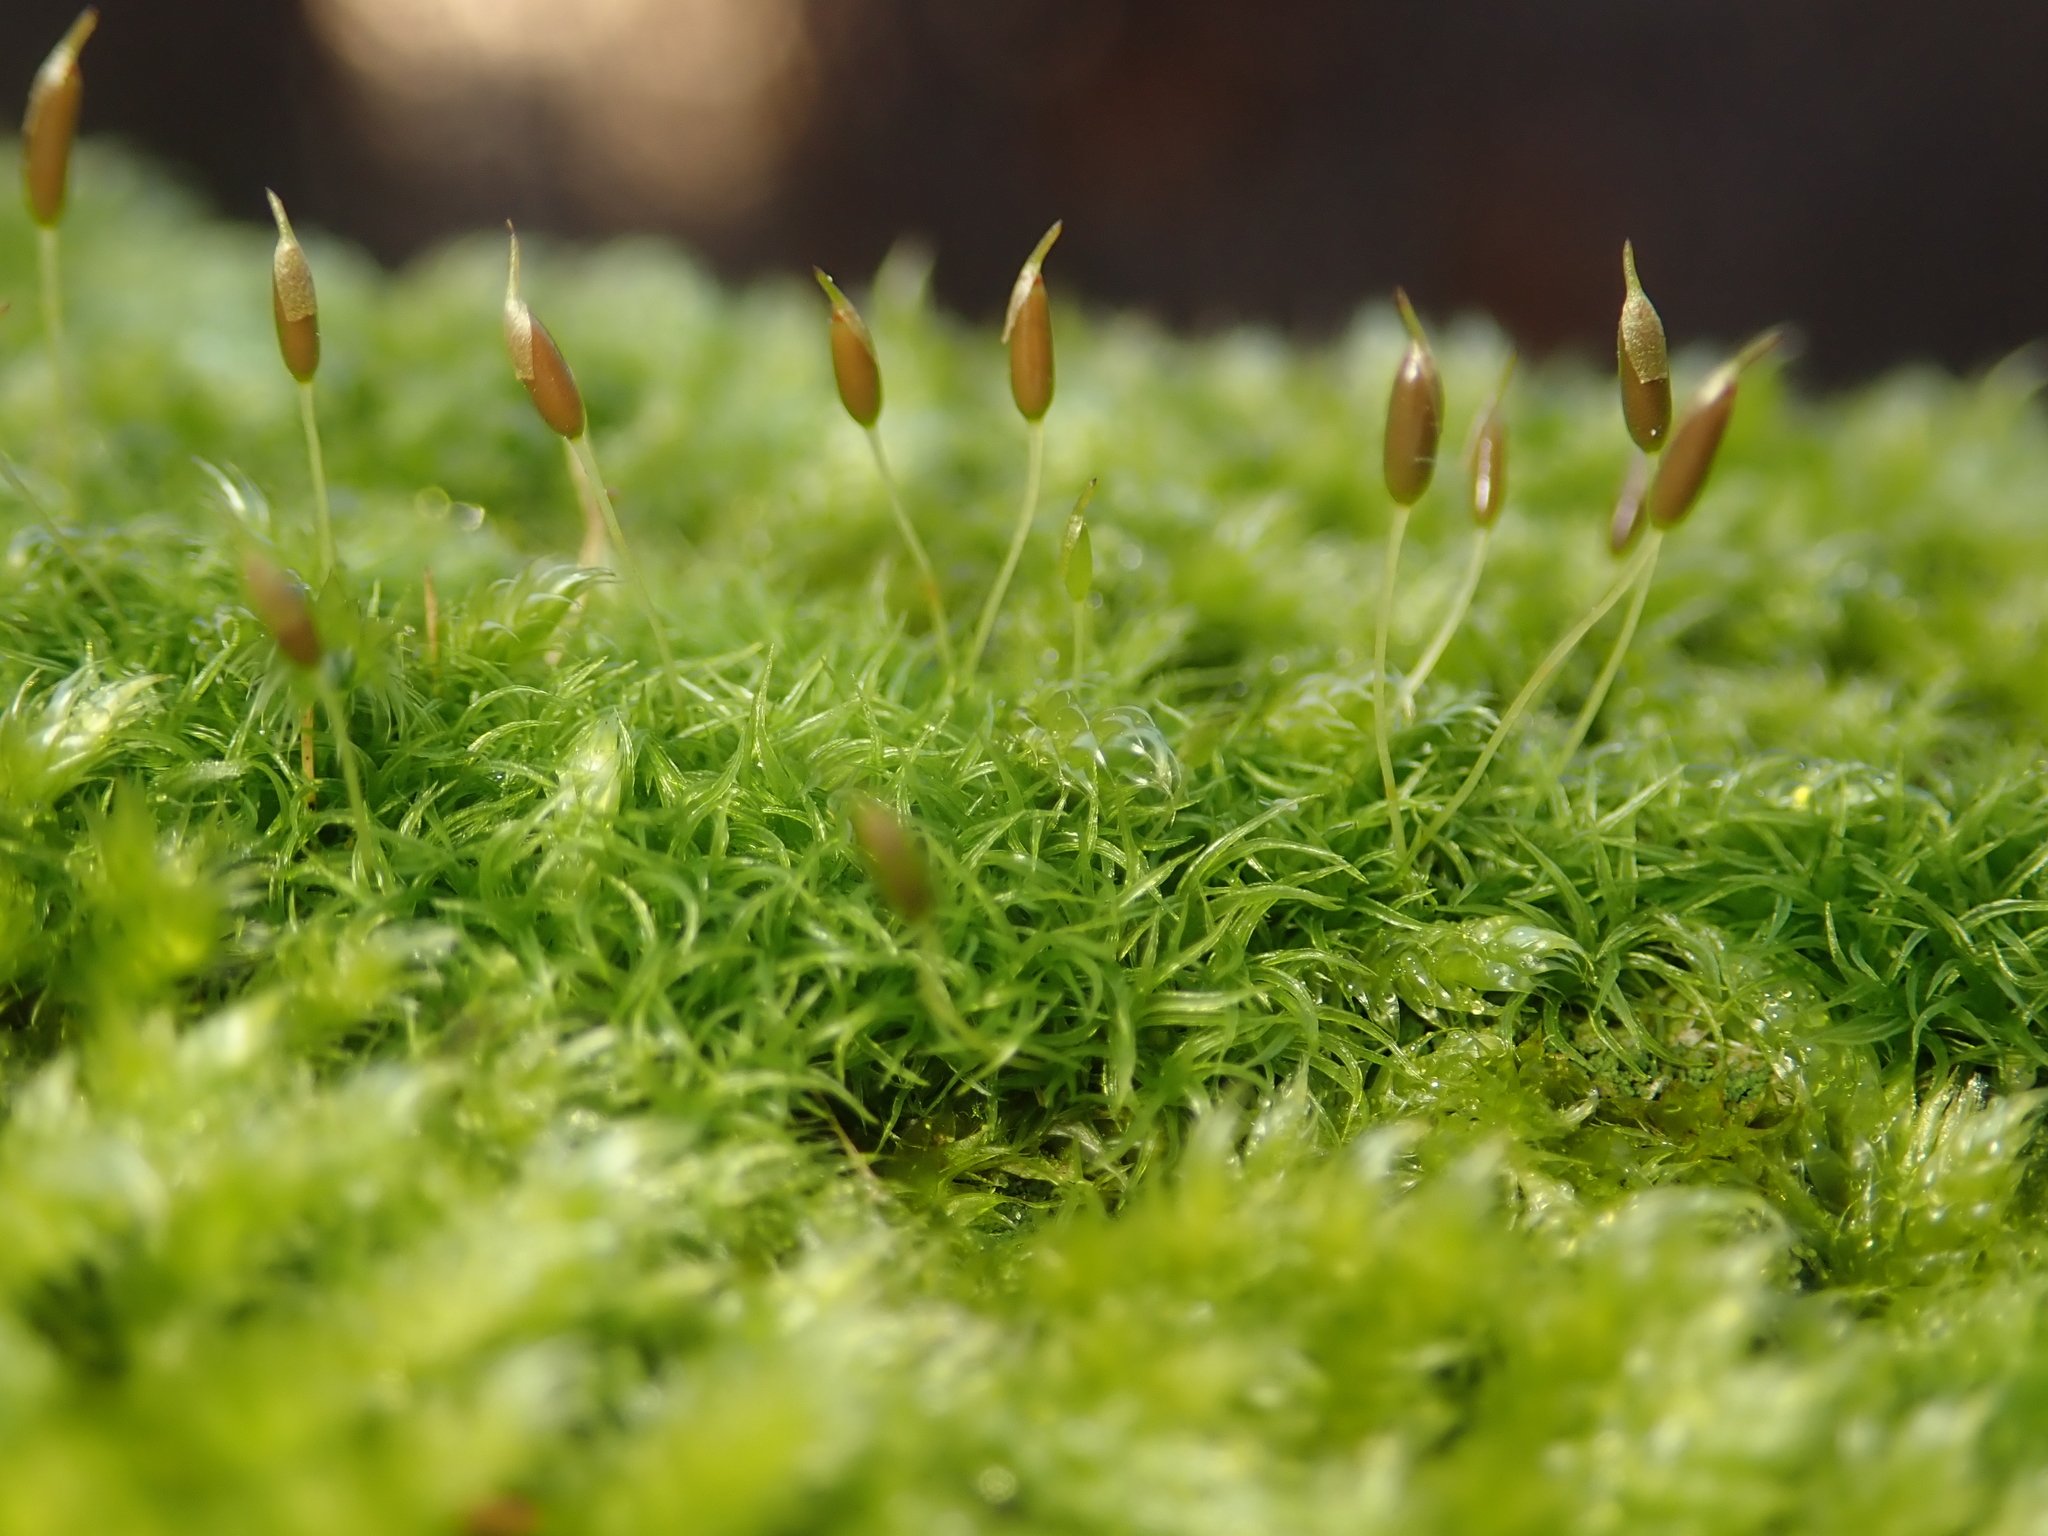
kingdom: Plantae
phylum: Bryophyta
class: Bryopsida
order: Dicranales
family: Rhabdoweisiaceae
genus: Dicranoweisia
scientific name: Dicranoweisia cirrata
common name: Common pincushion
